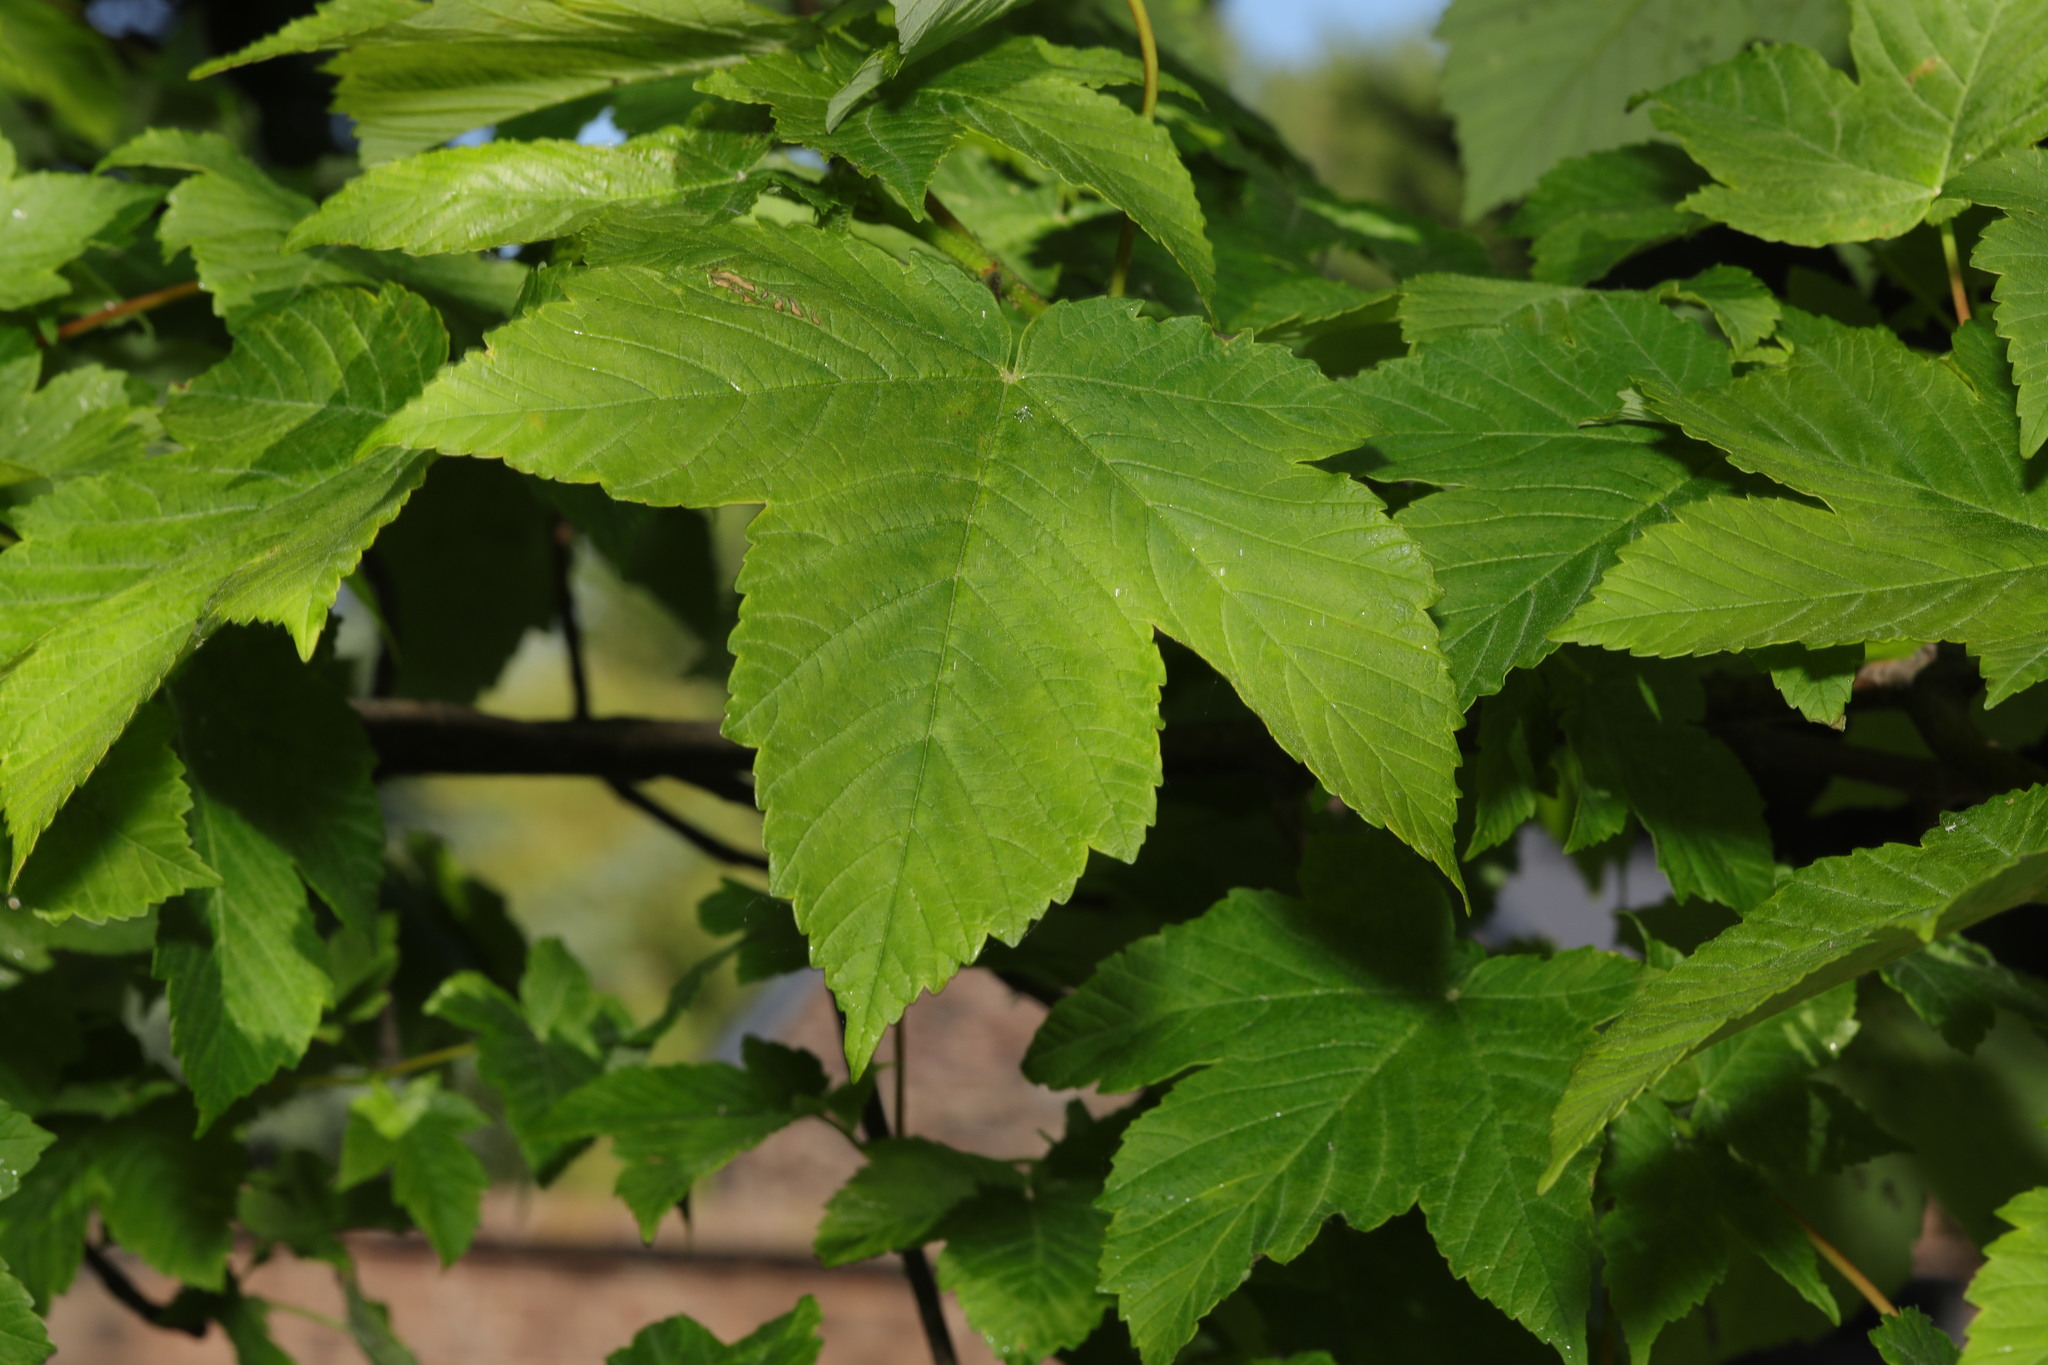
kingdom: Plantae
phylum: Tracheophyta
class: Magnoliopsida
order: Sapindales
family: Sapindaceae
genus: Acer
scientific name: Acer pseudoplatanus
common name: Sycamore
